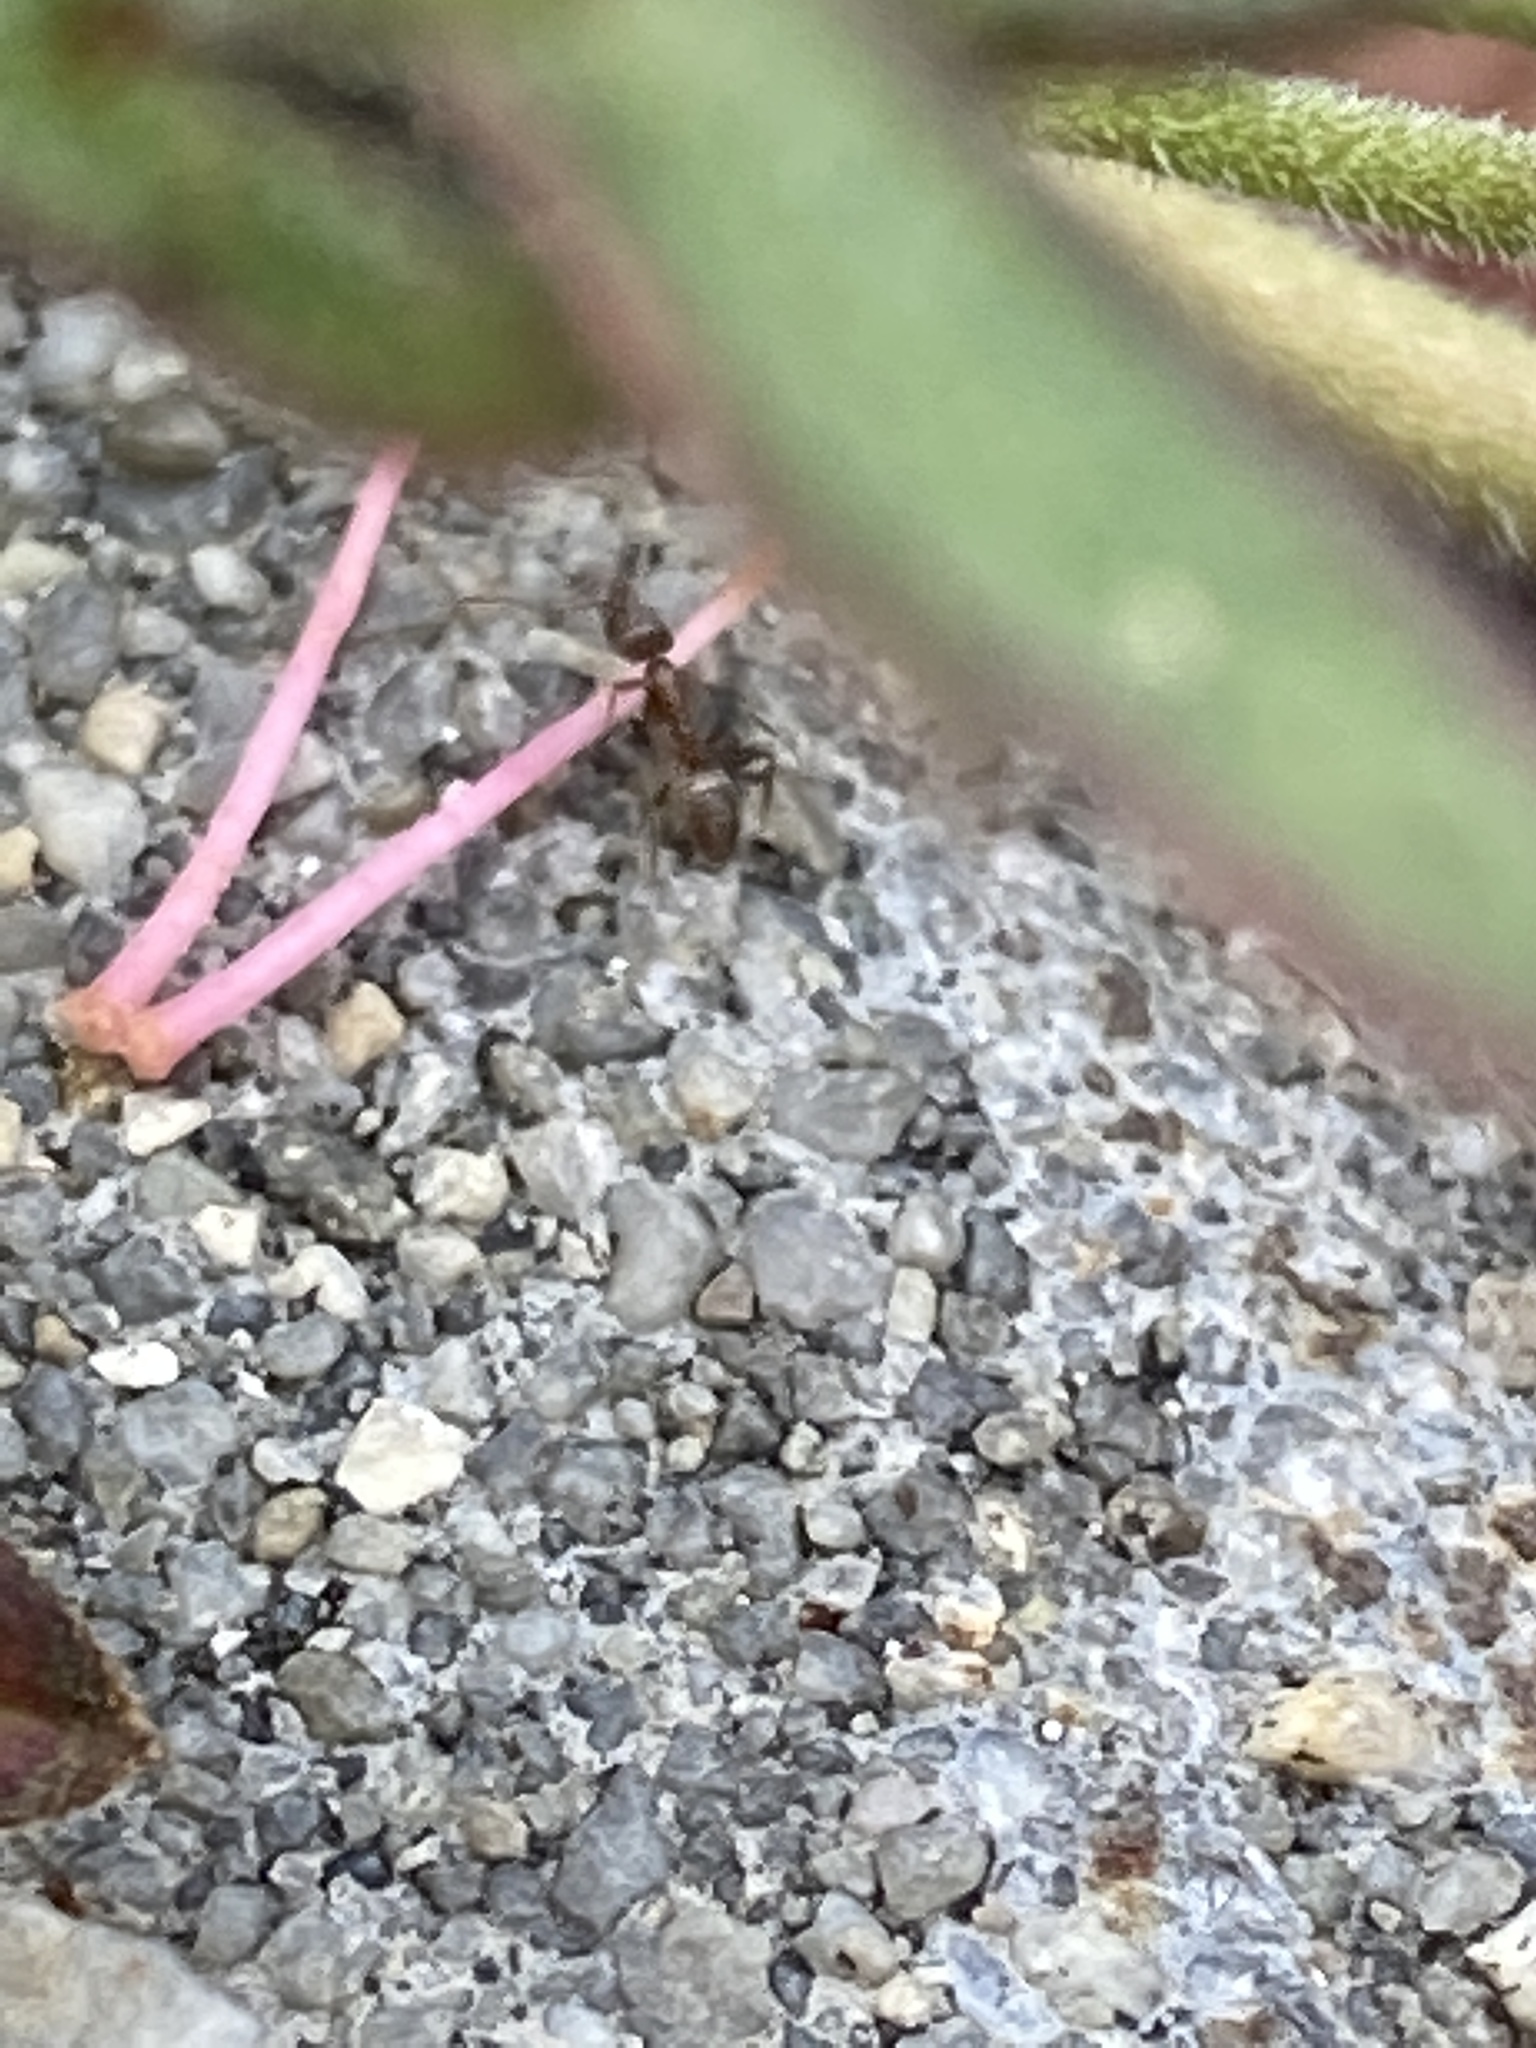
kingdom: Animalia
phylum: Arthropoda
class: Insecta
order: Hymenoptera
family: Formicidae
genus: Linepithema
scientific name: Linepithema humile
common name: Argentine ant
